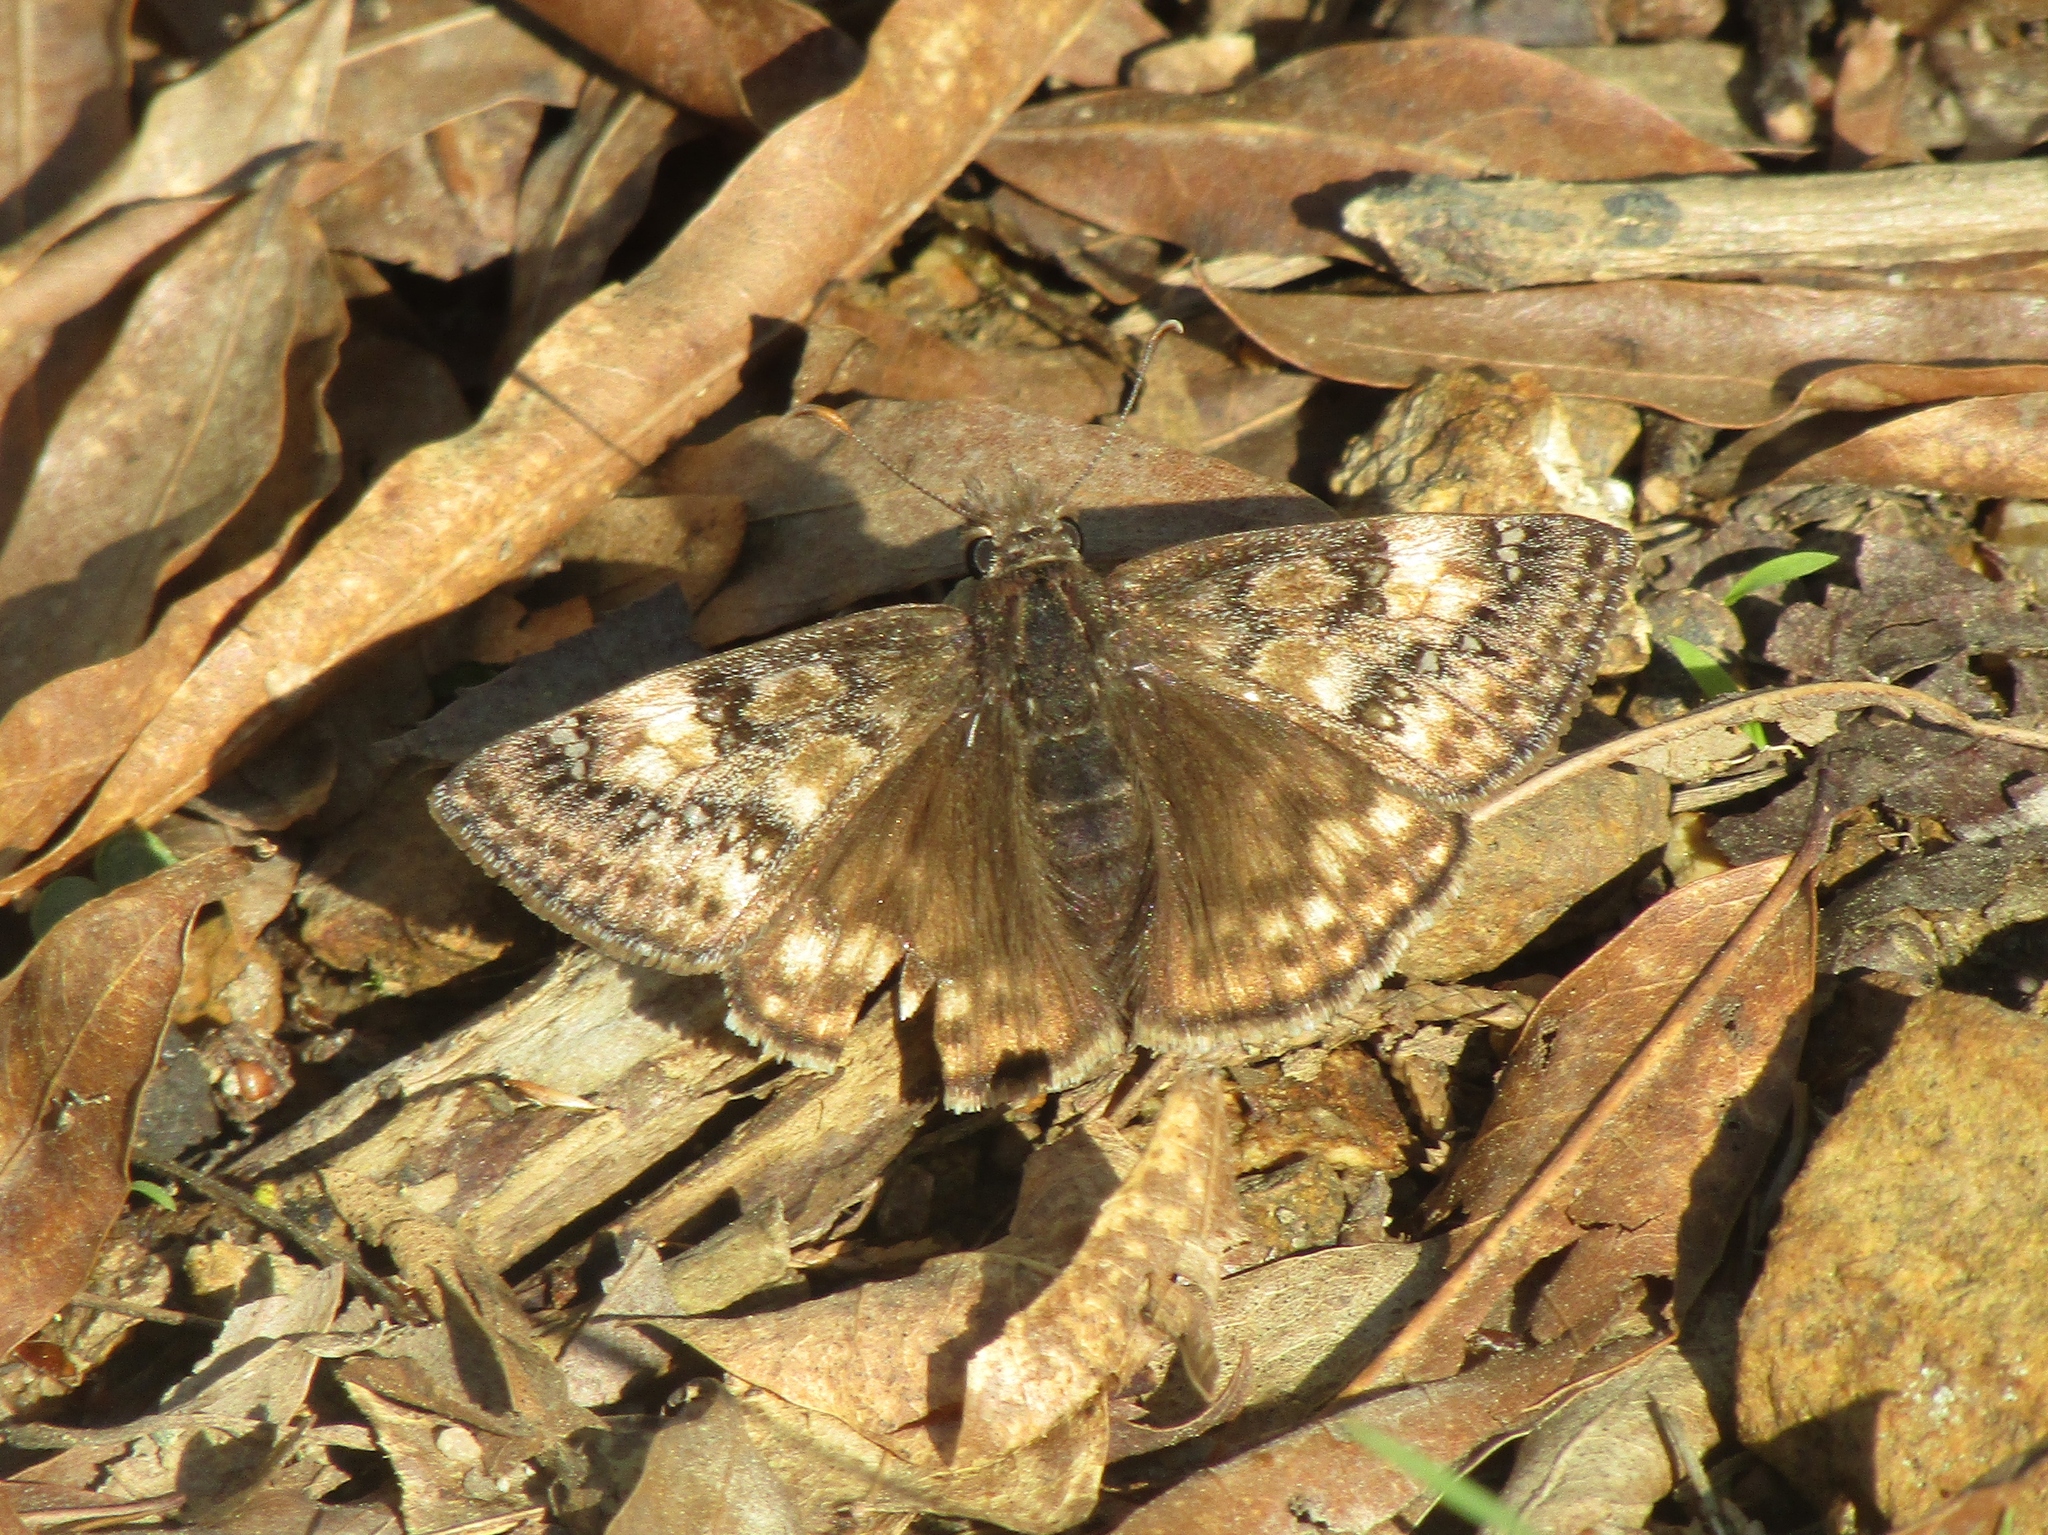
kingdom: Animalia
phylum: Arthropoda
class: Insecta
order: Lepidoptera
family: Hesperiidae
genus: Erynnis
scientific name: Erynnis juvenalis
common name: Juvenal's duskywing
